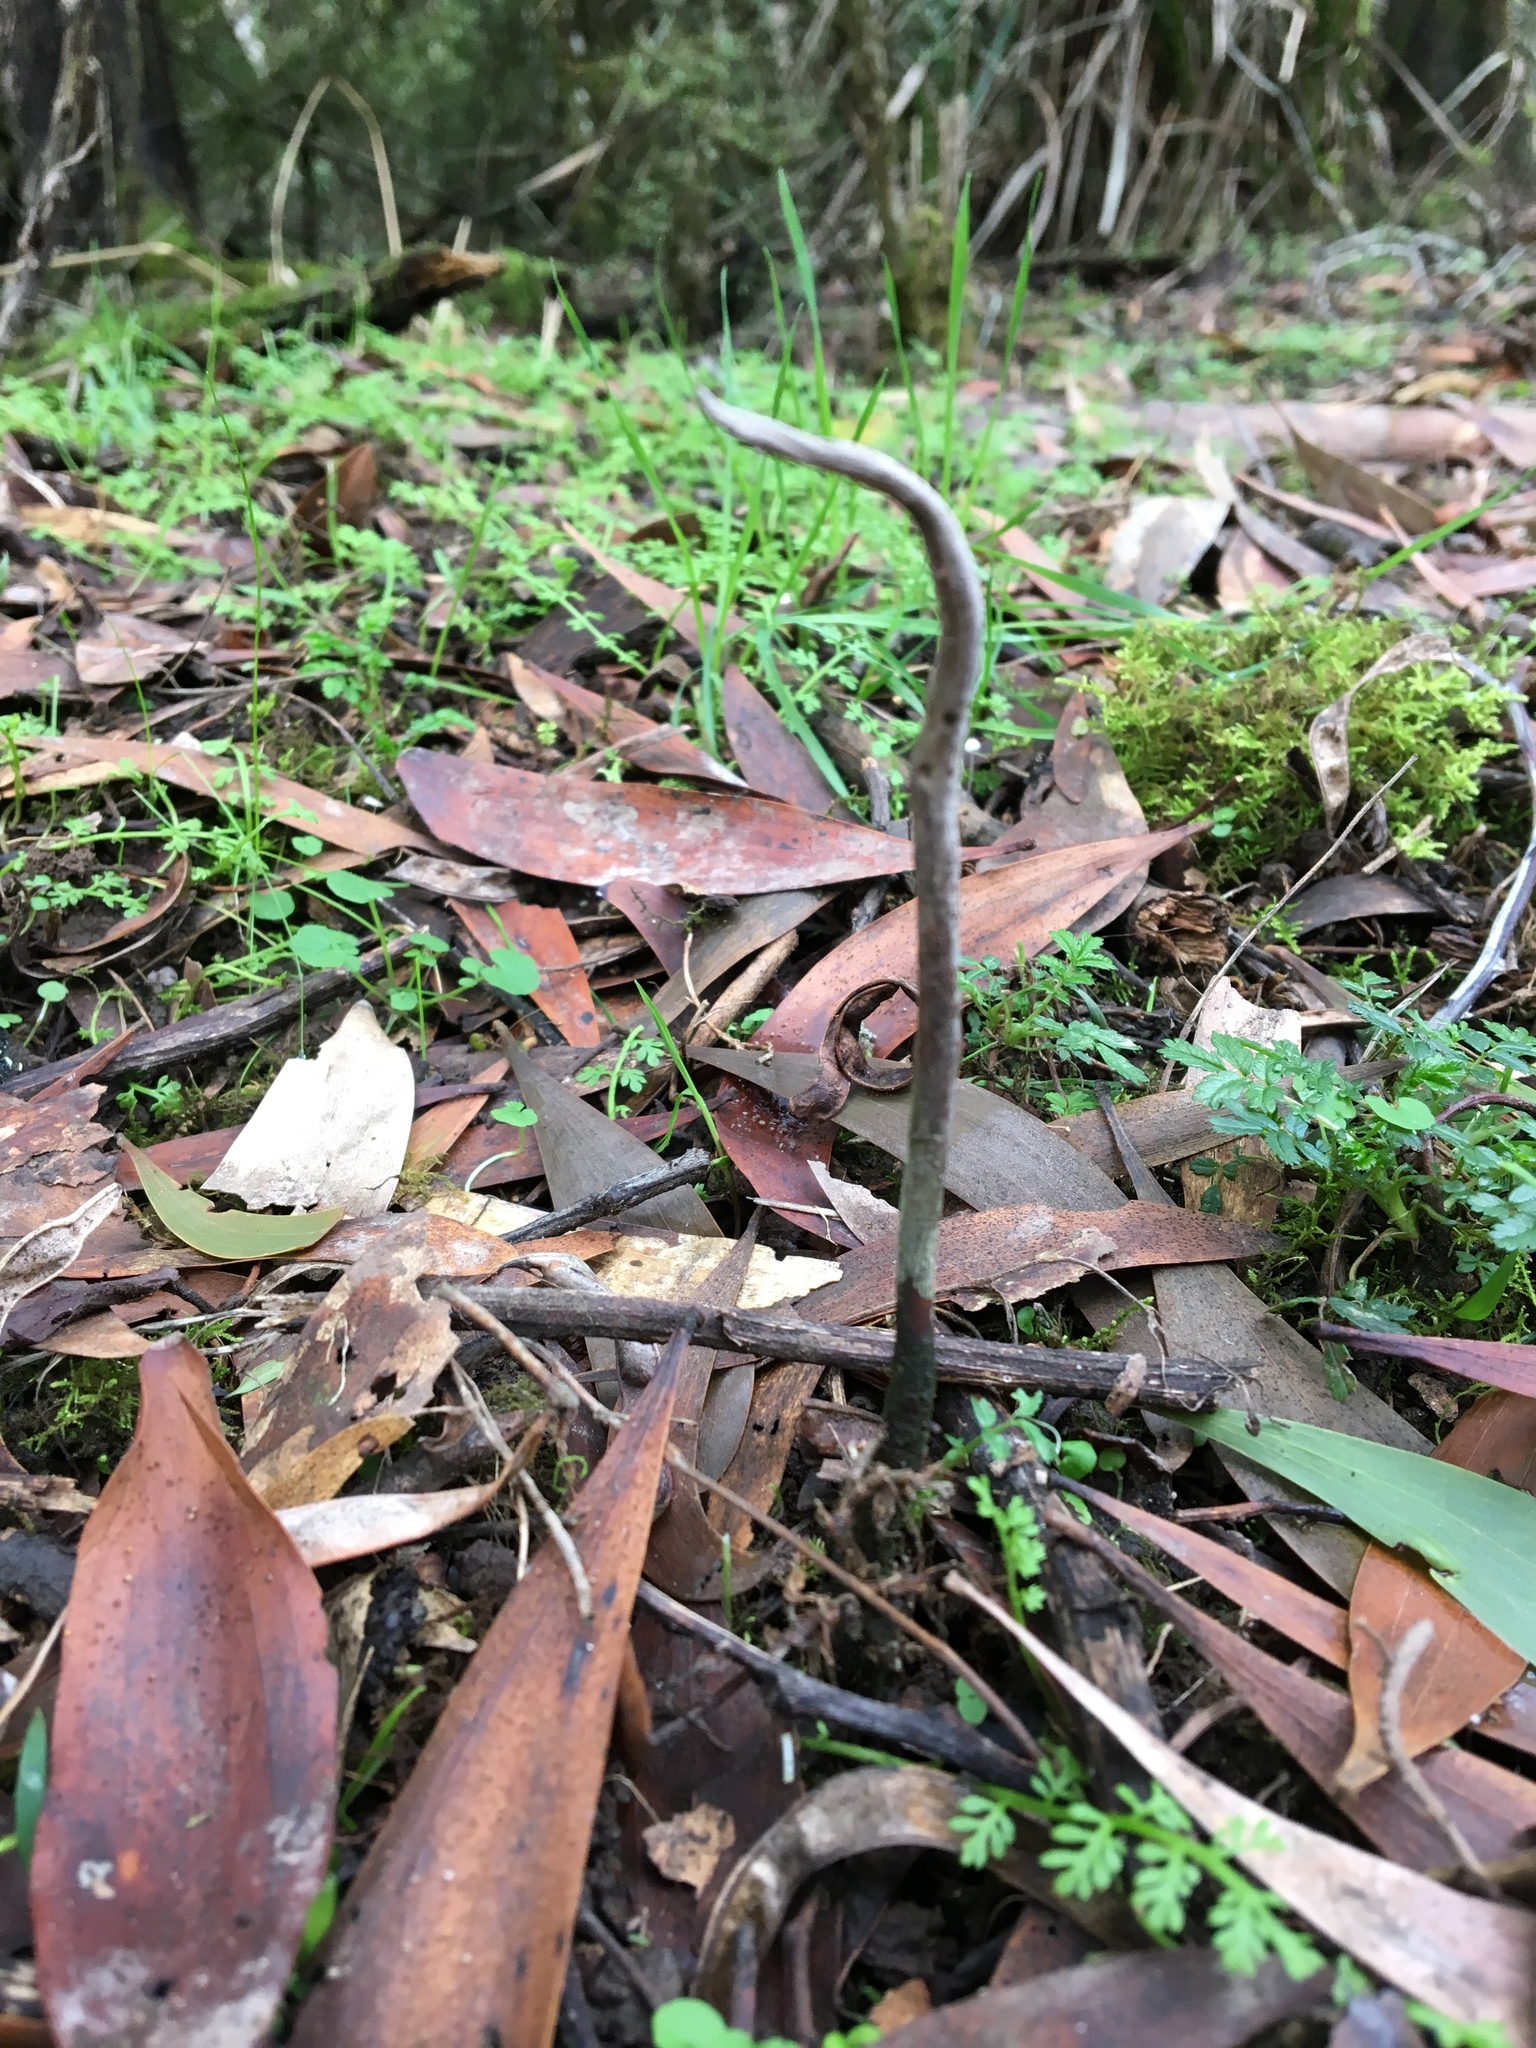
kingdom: Fungi
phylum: Ascomycota
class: Sordariomycetes
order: Hypocreales
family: Ophiocordycipitaceae
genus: Ophiocordyceps
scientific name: Ophiocordyceps robertsii
